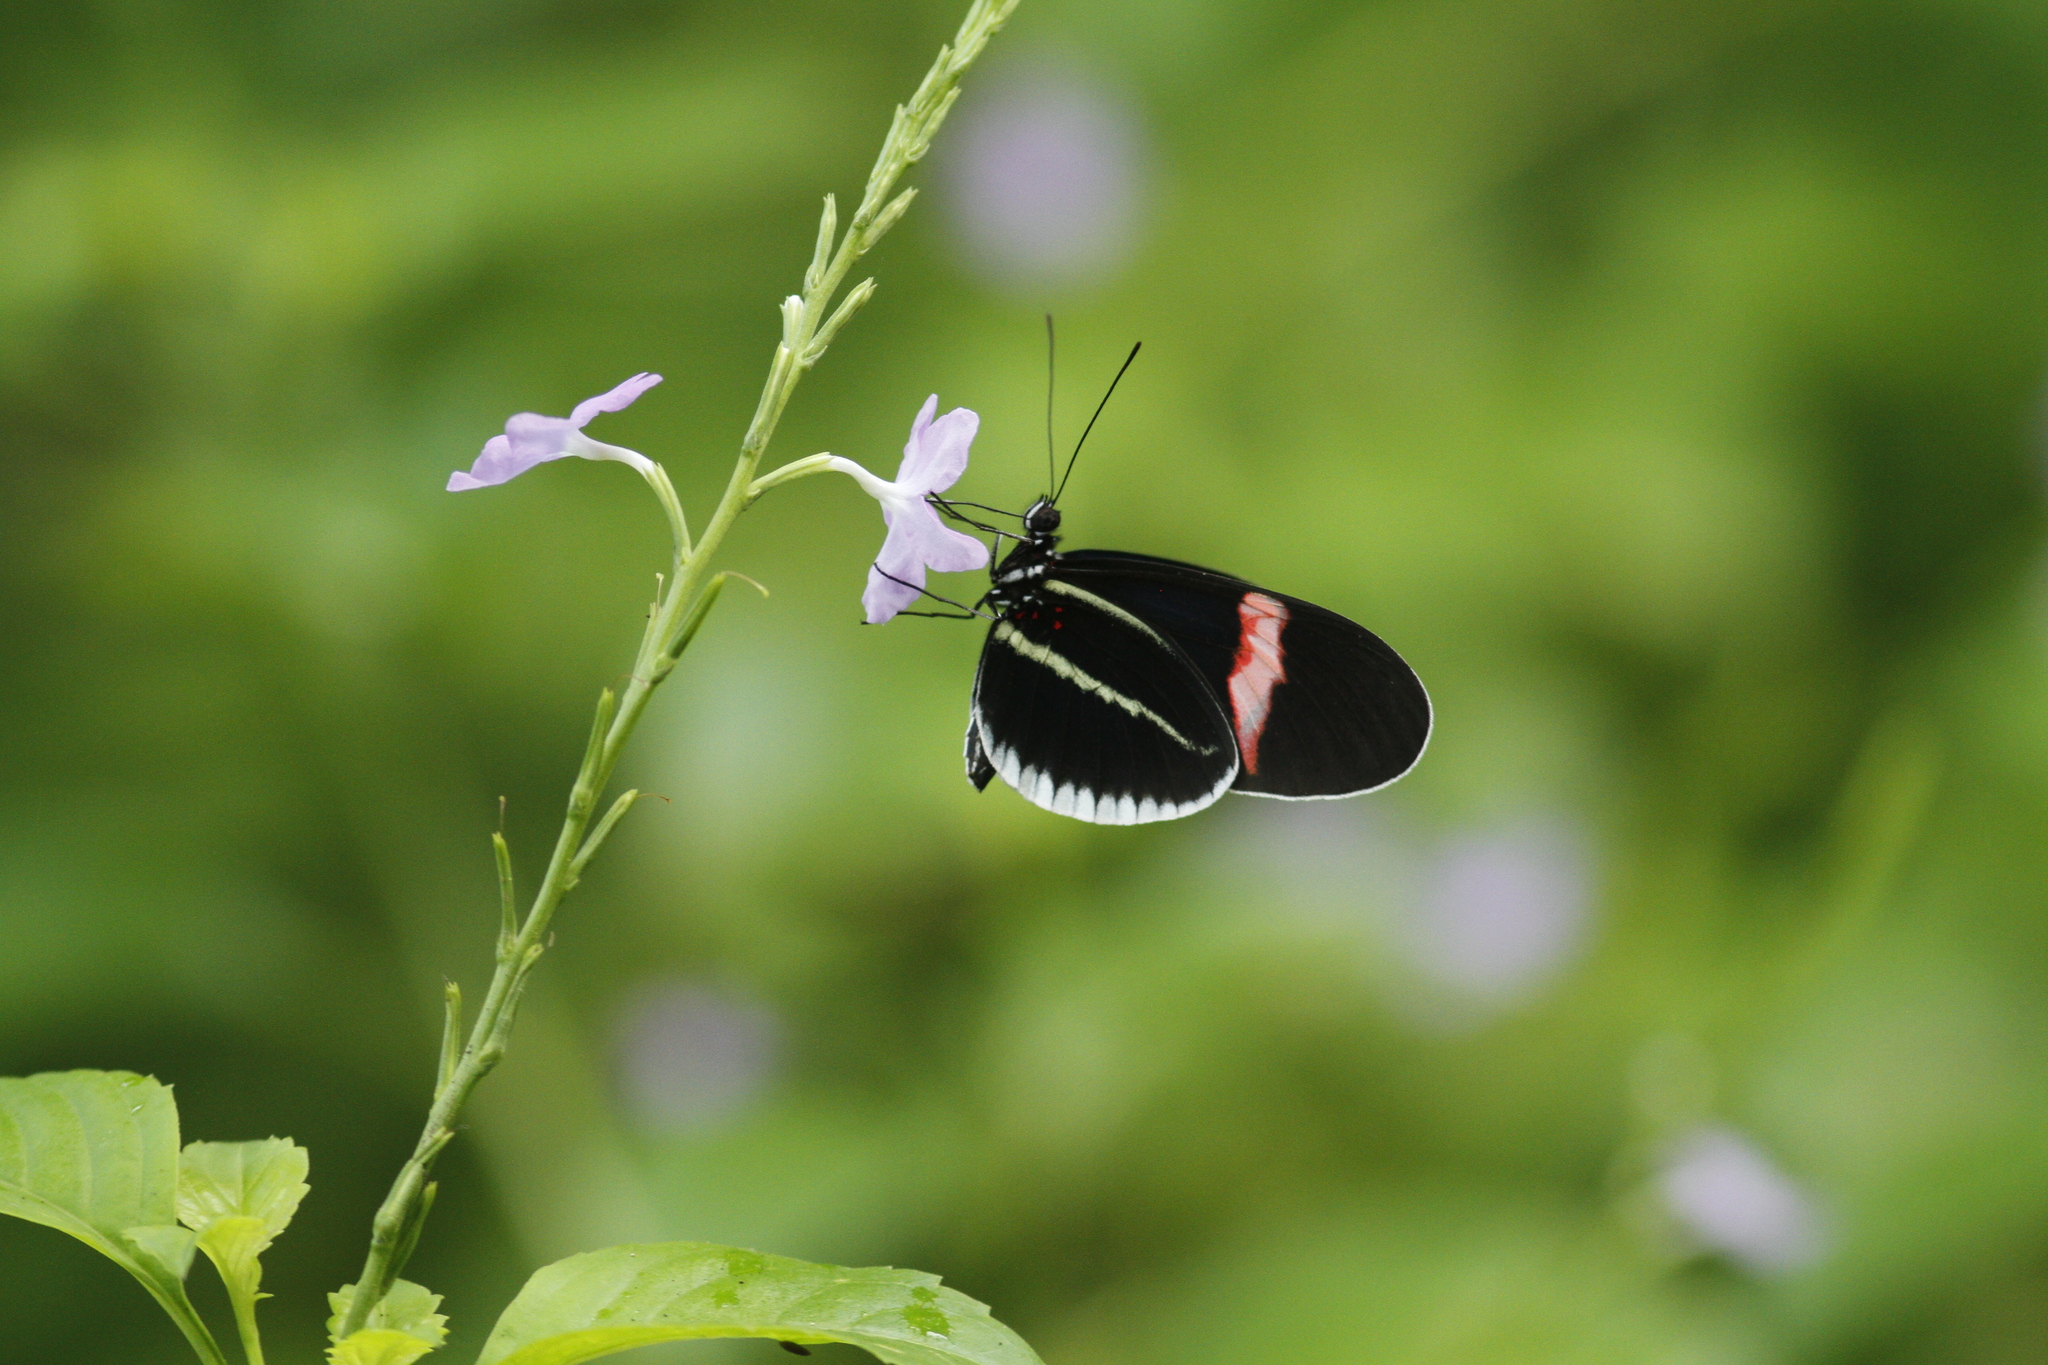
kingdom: Animalia
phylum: Arthropoda
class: Insecta
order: Lepidoptera
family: Nymphalidae
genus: Heliconius
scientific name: Heliconius erato
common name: Common patch longwing
